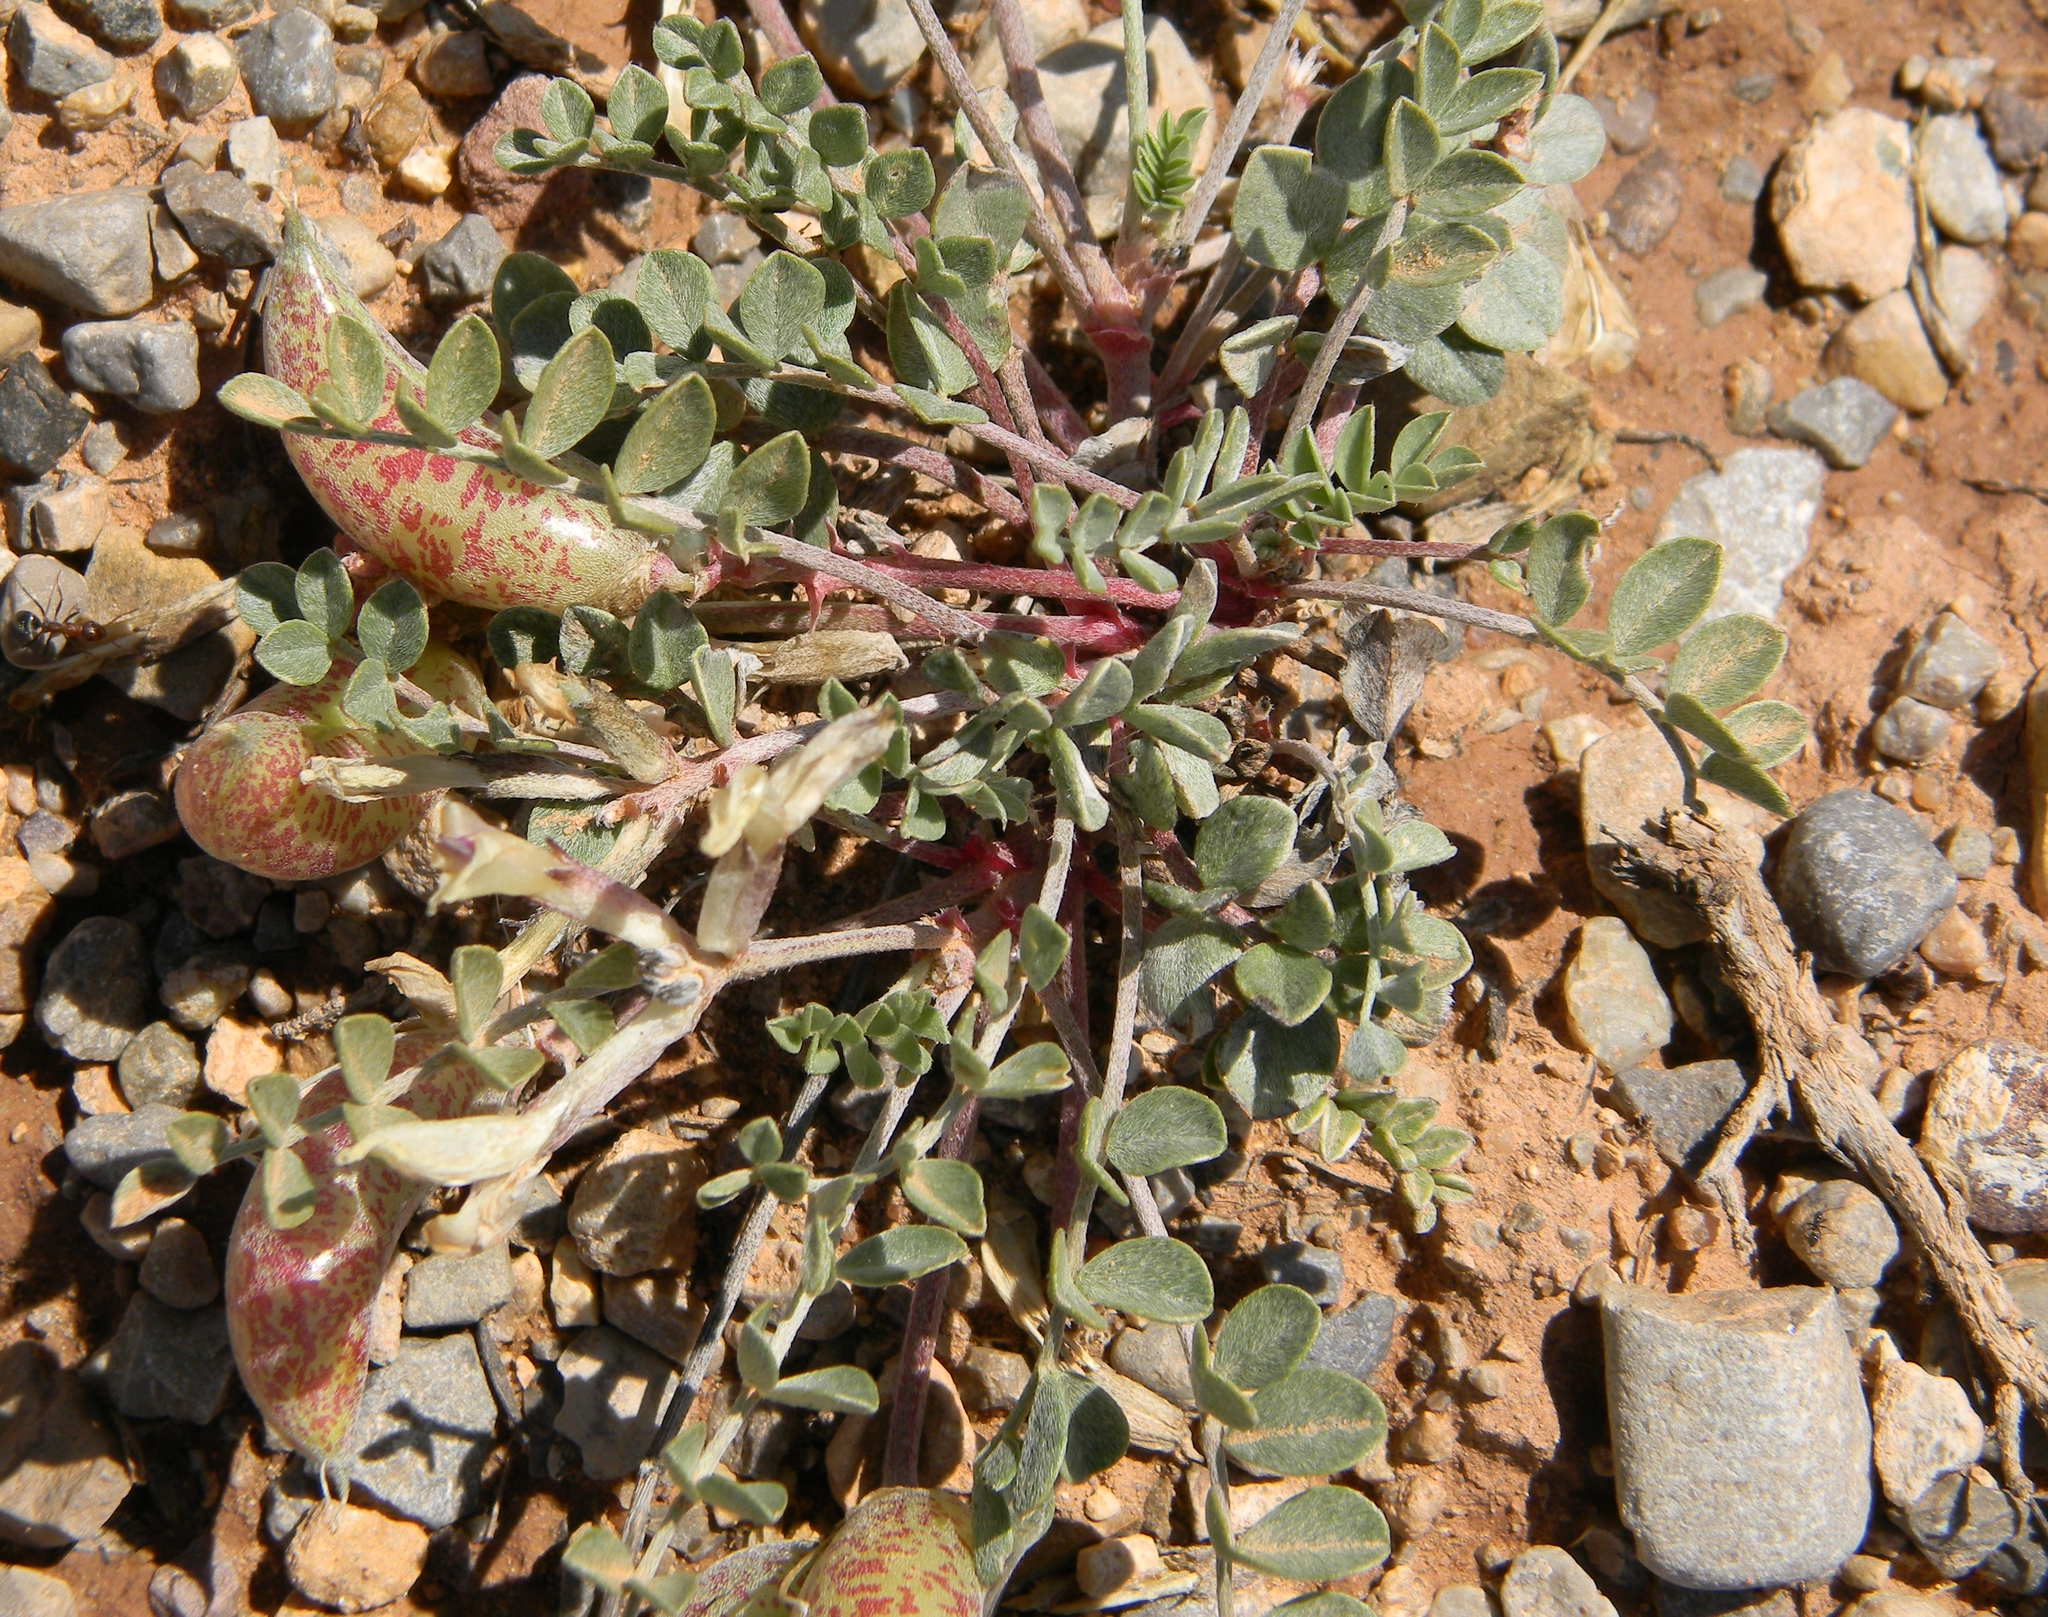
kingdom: Plantae
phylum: Tracheophyta
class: Magnoliopsida
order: Fabales
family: Fabaceae
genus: Astragalus
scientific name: Astragalus chamaeleuce
